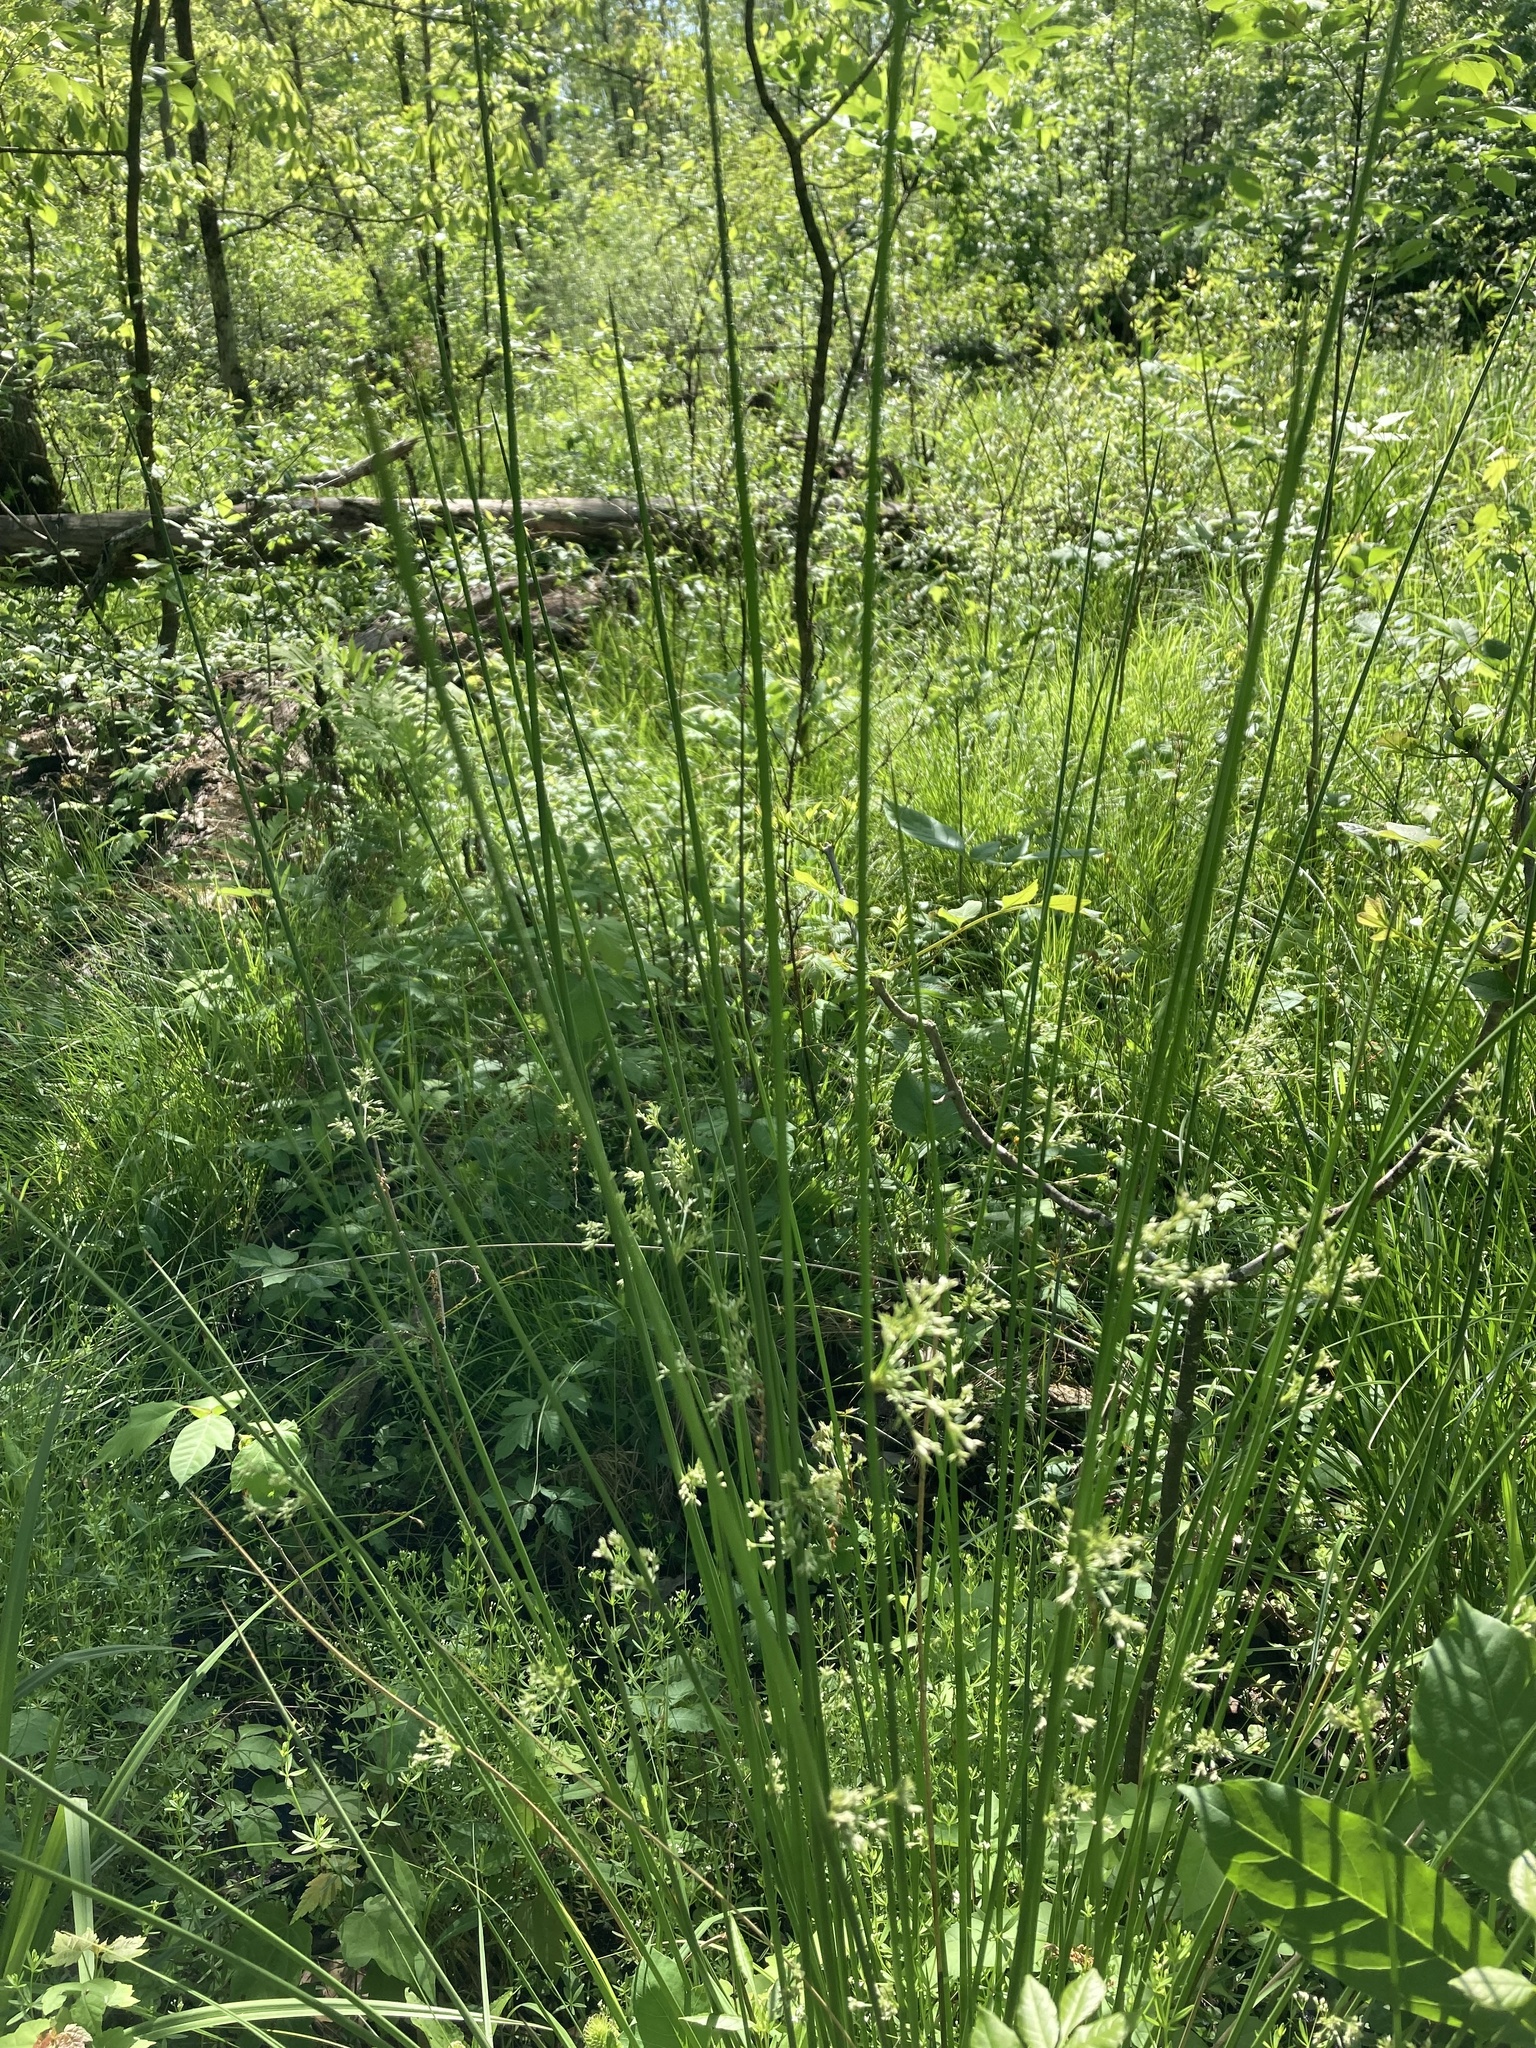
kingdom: Plantae
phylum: Tracheophyta
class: Liliopsida
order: Poales
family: Juncaceae
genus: Juncus
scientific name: Juncus effusus
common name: Soft rush
